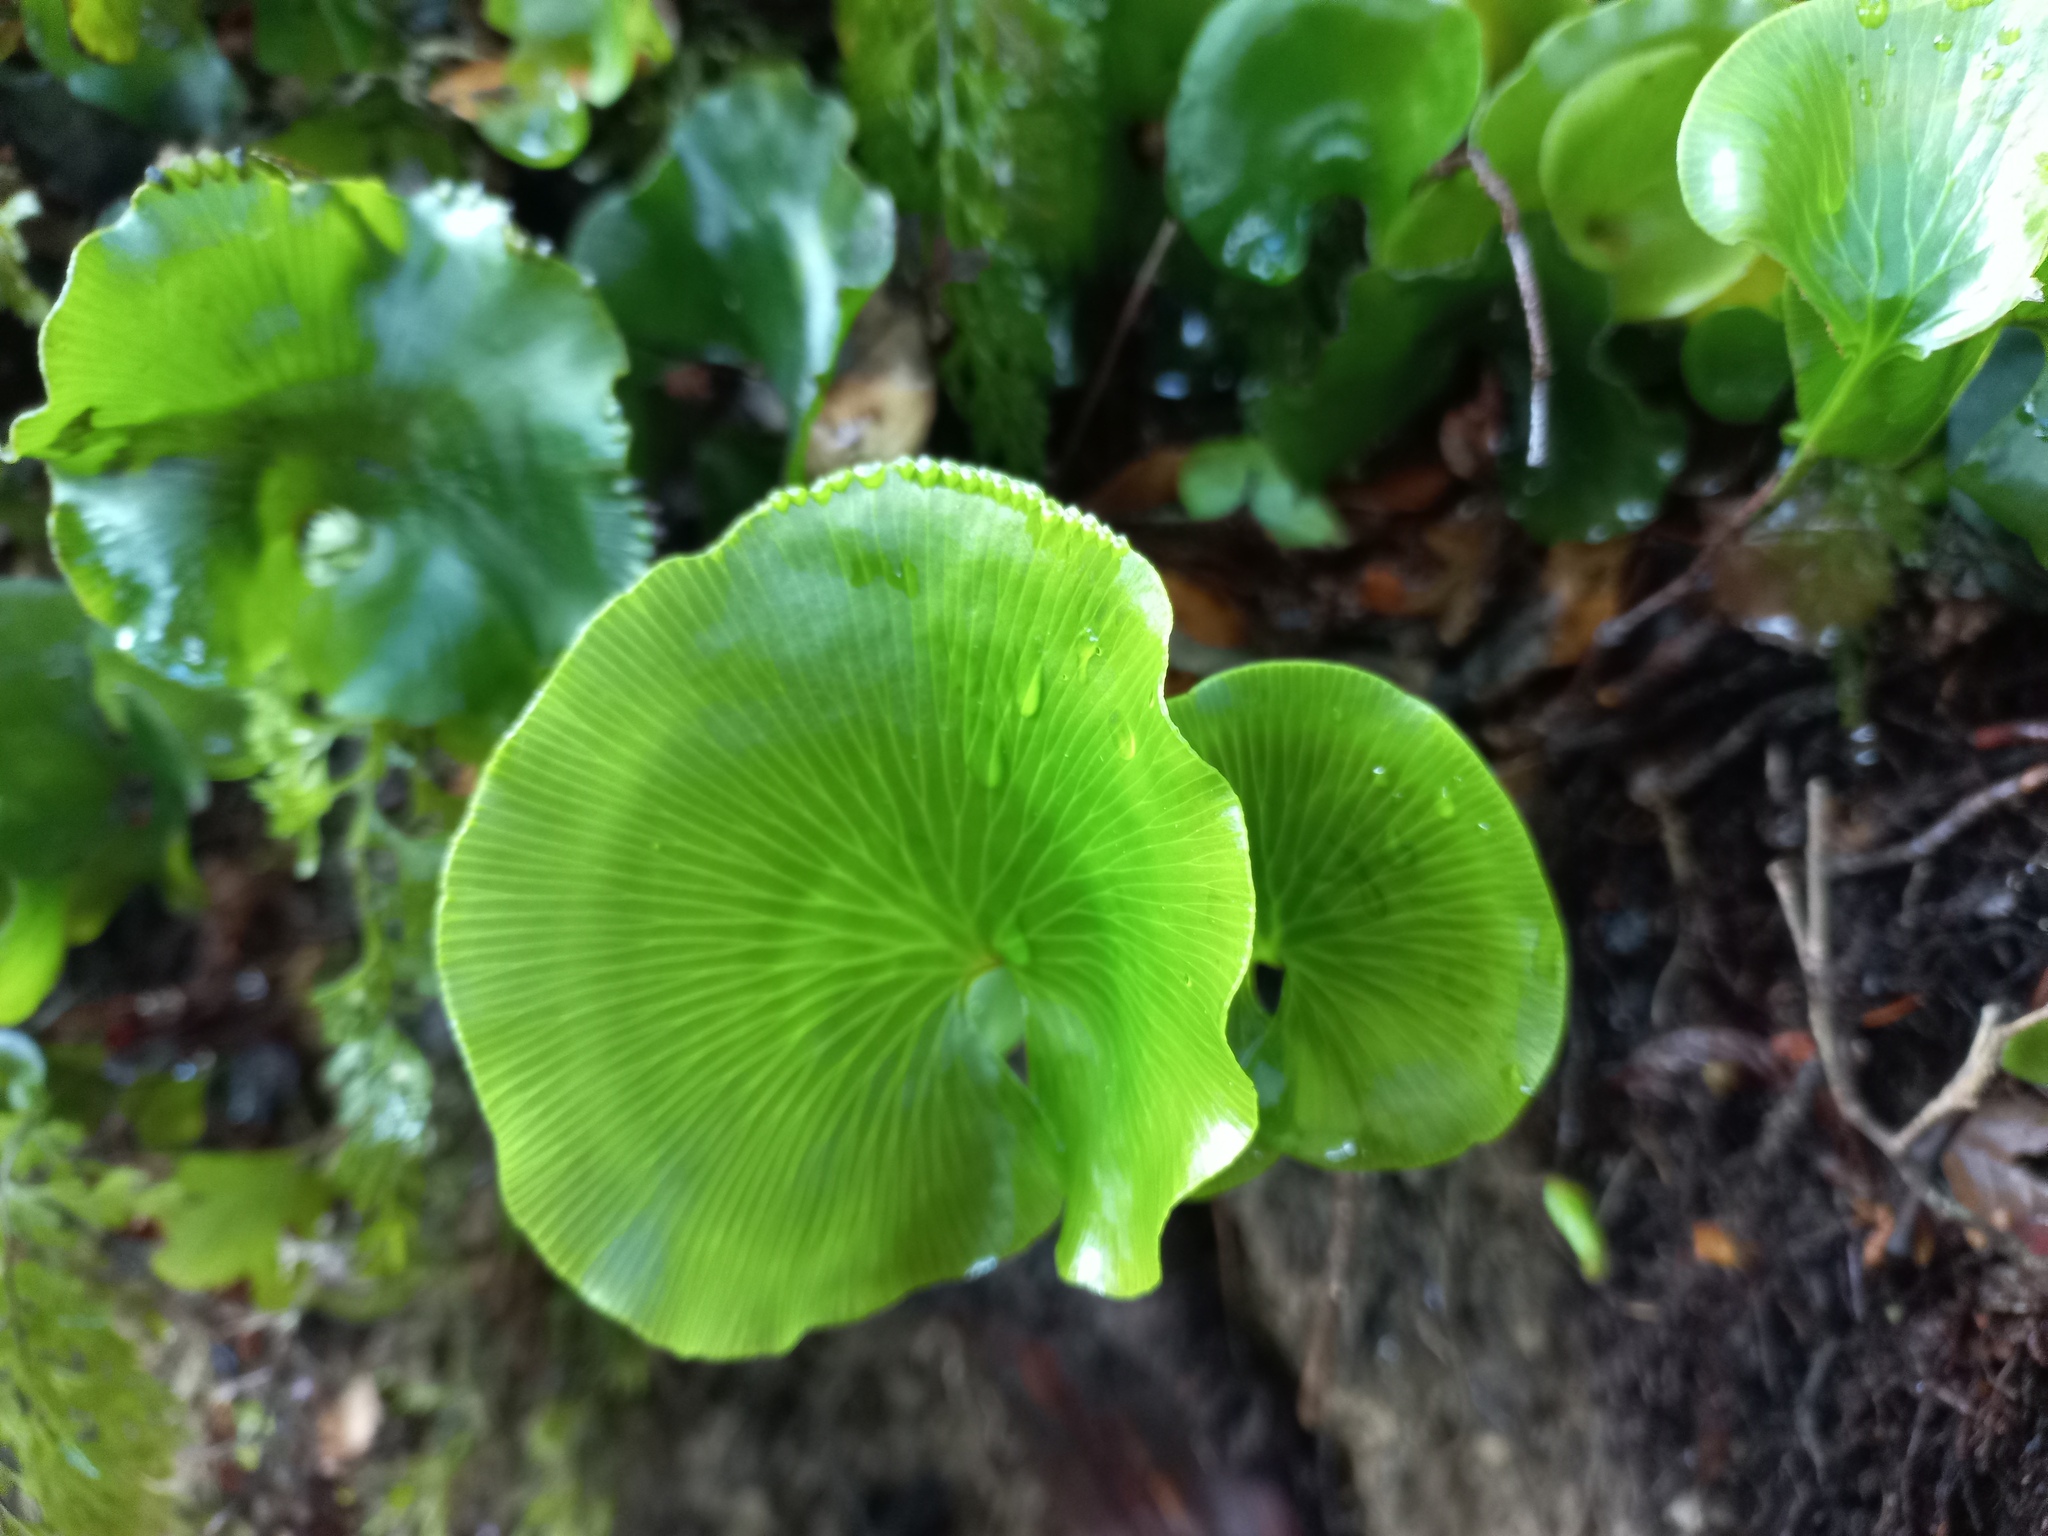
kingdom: Plantae
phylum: Tracheophyta
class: Polypodiopsida
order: Hymenophyllales
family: Hymenophyllaceae
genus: Hymenophyllum
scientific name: Hymenophyllum nephrophyllum
